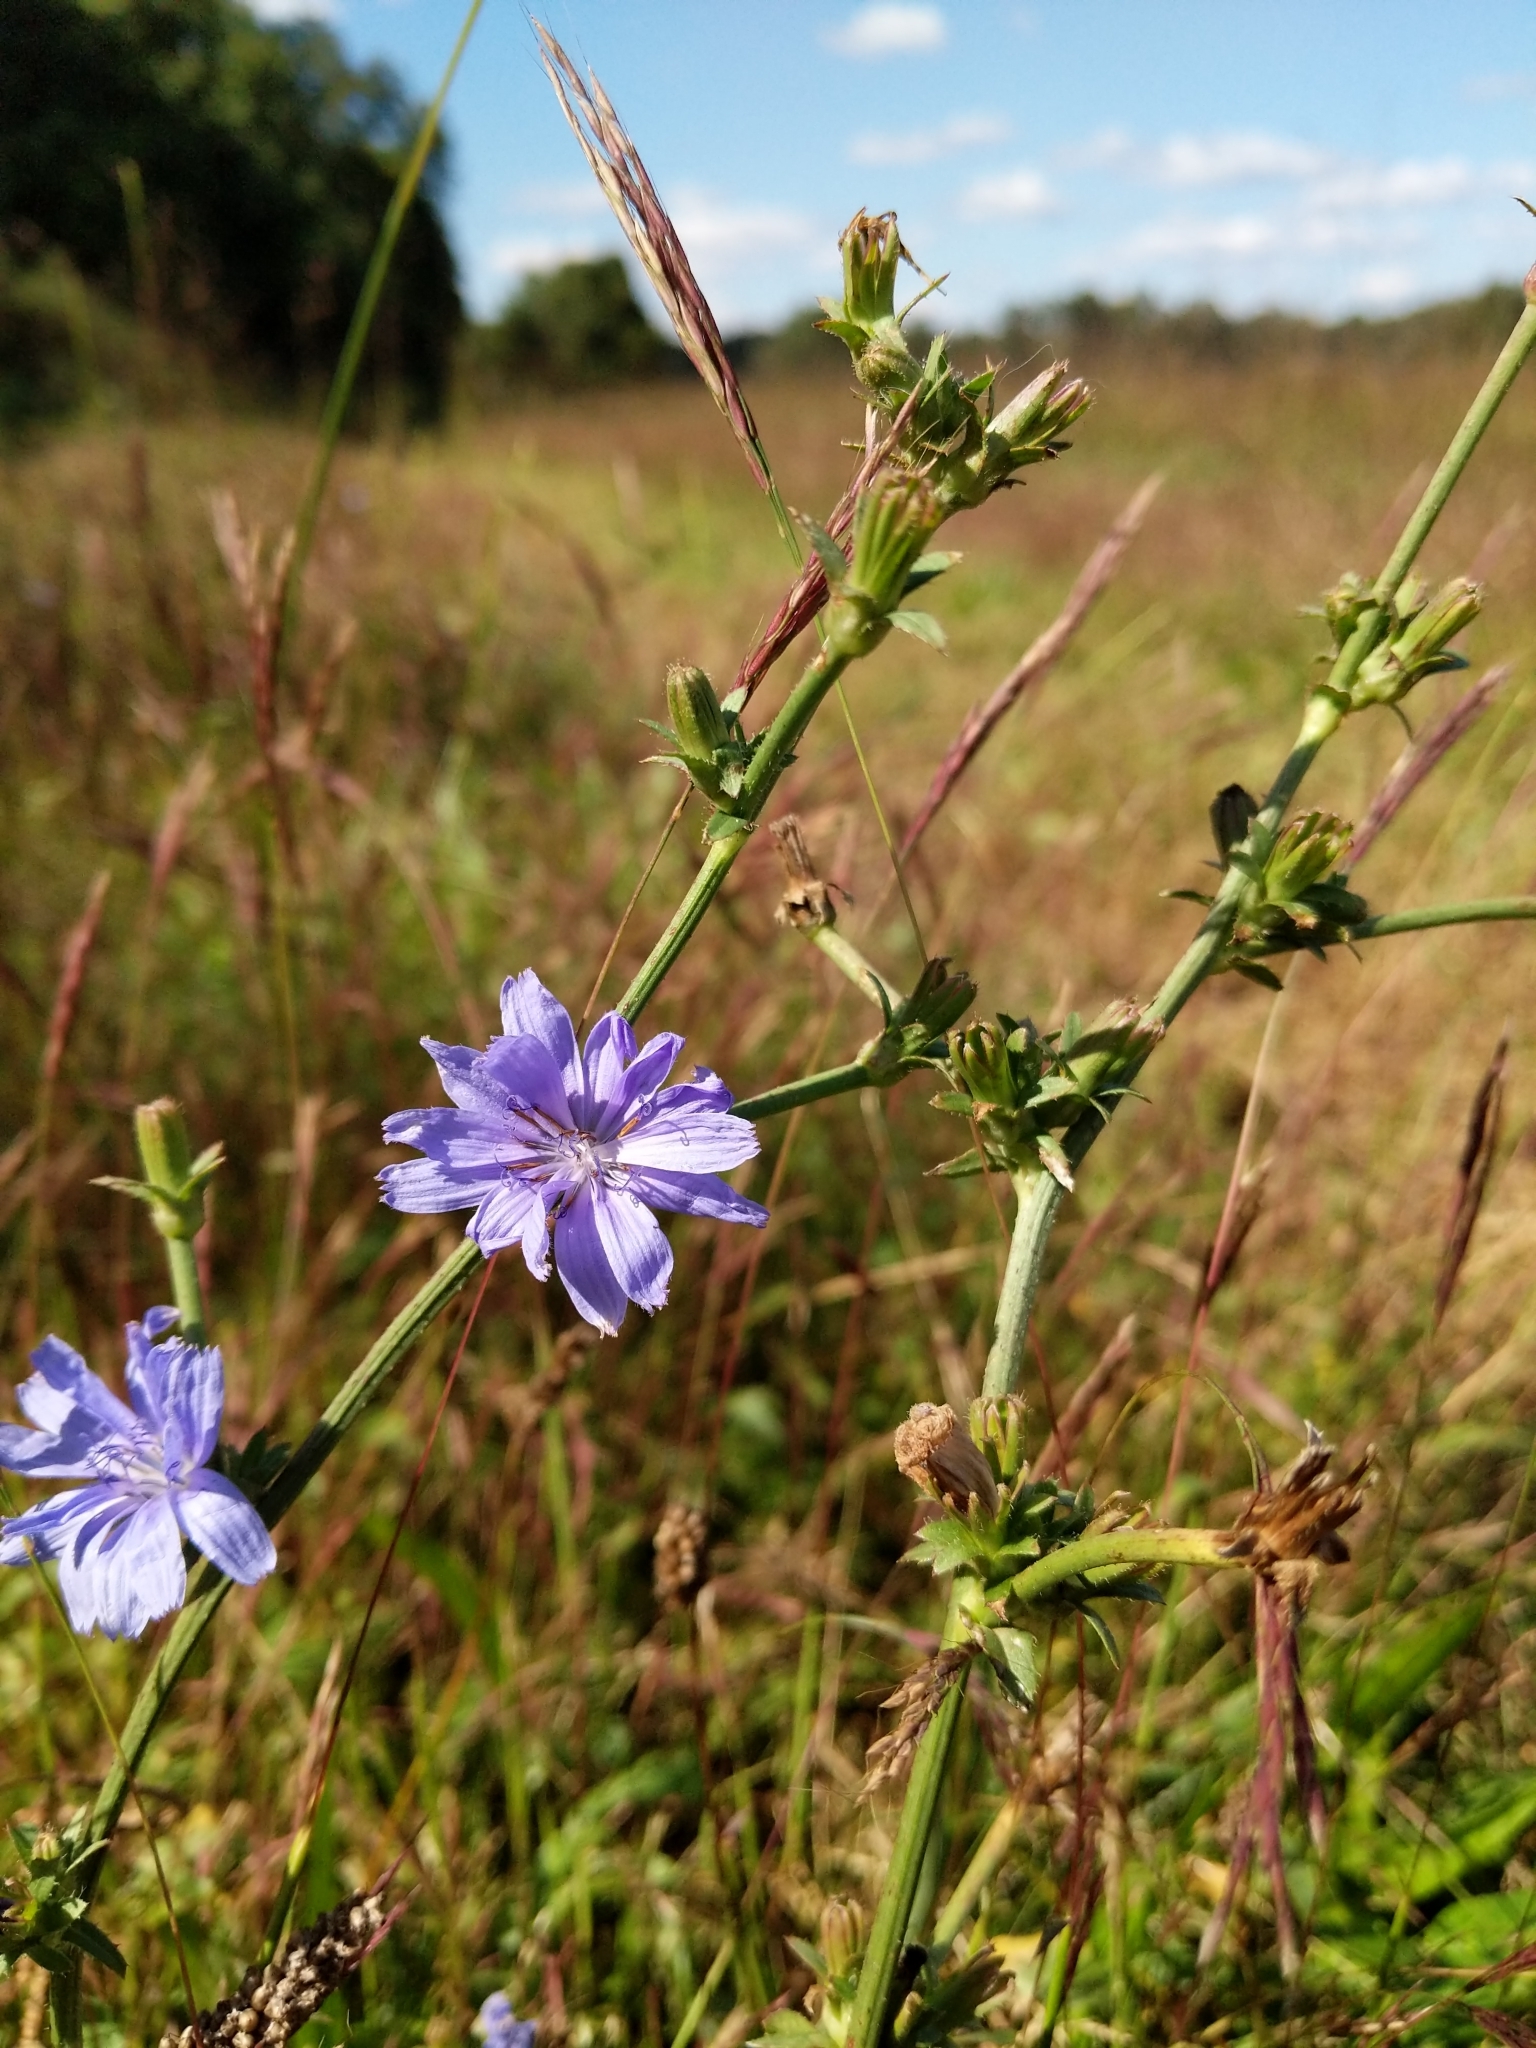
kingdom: Plantae
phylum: Tracheophyta
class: Magnoliopsida
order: Asterales
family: Asteraceae
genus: Cichorium
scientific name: Cichorium intybus
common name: Chicory
